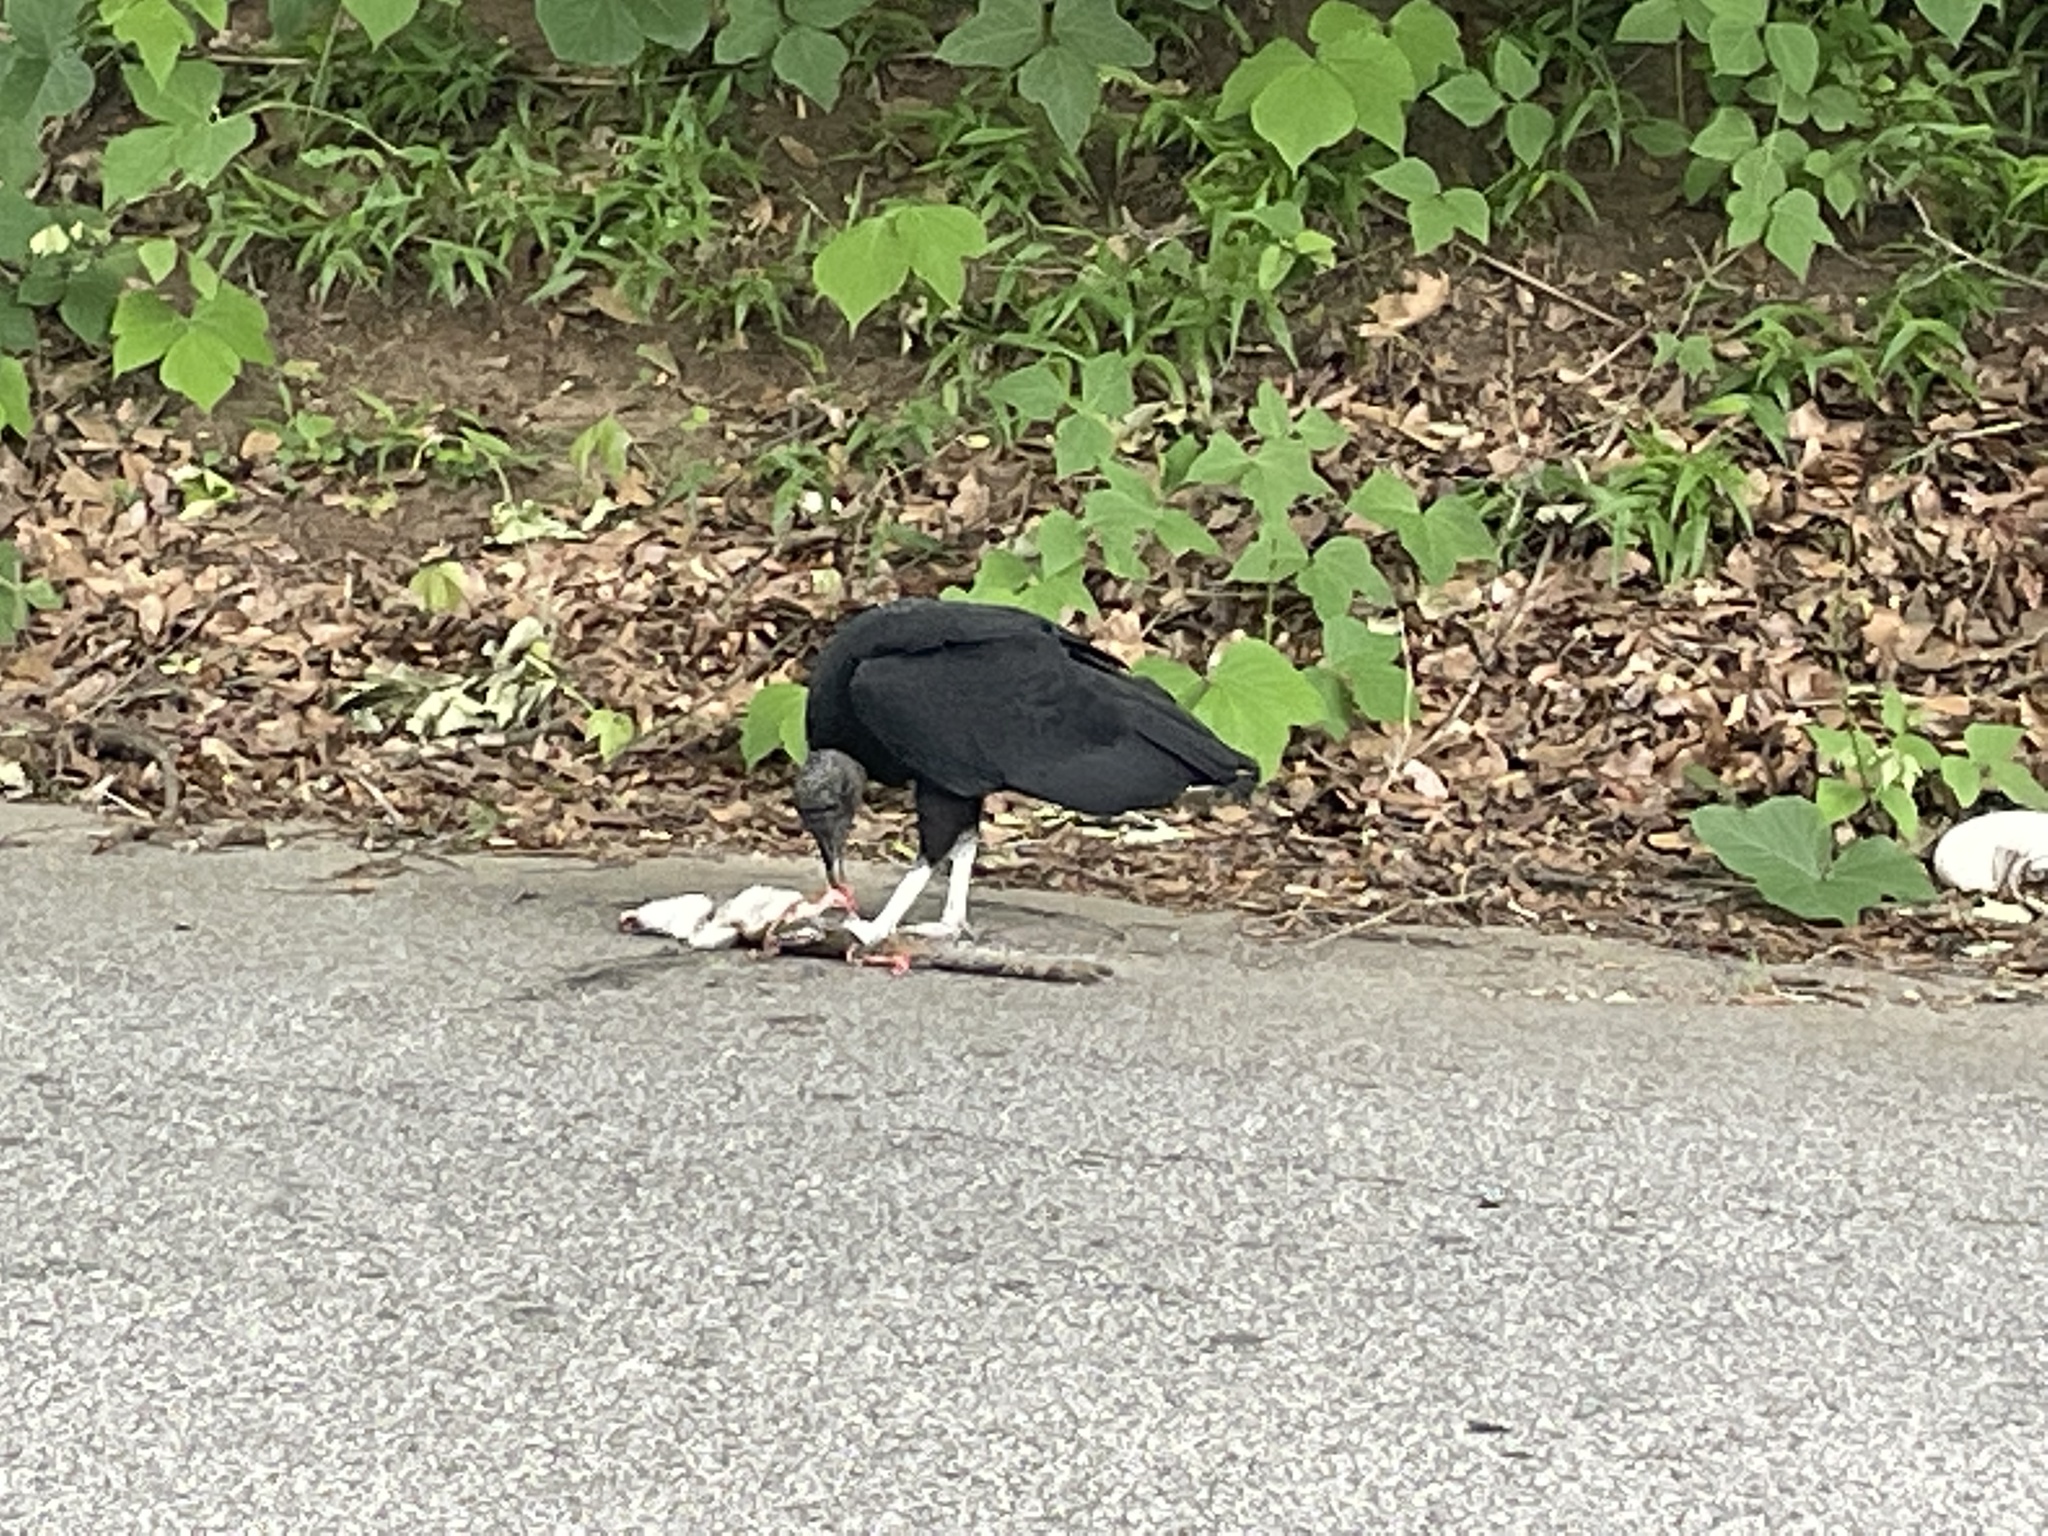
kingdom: Animalia
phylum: Chordata
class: Aves
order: Accipitriformes
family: Cathartidae
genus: Coragyps
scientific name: Coragyps atratus
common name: Black vulture
